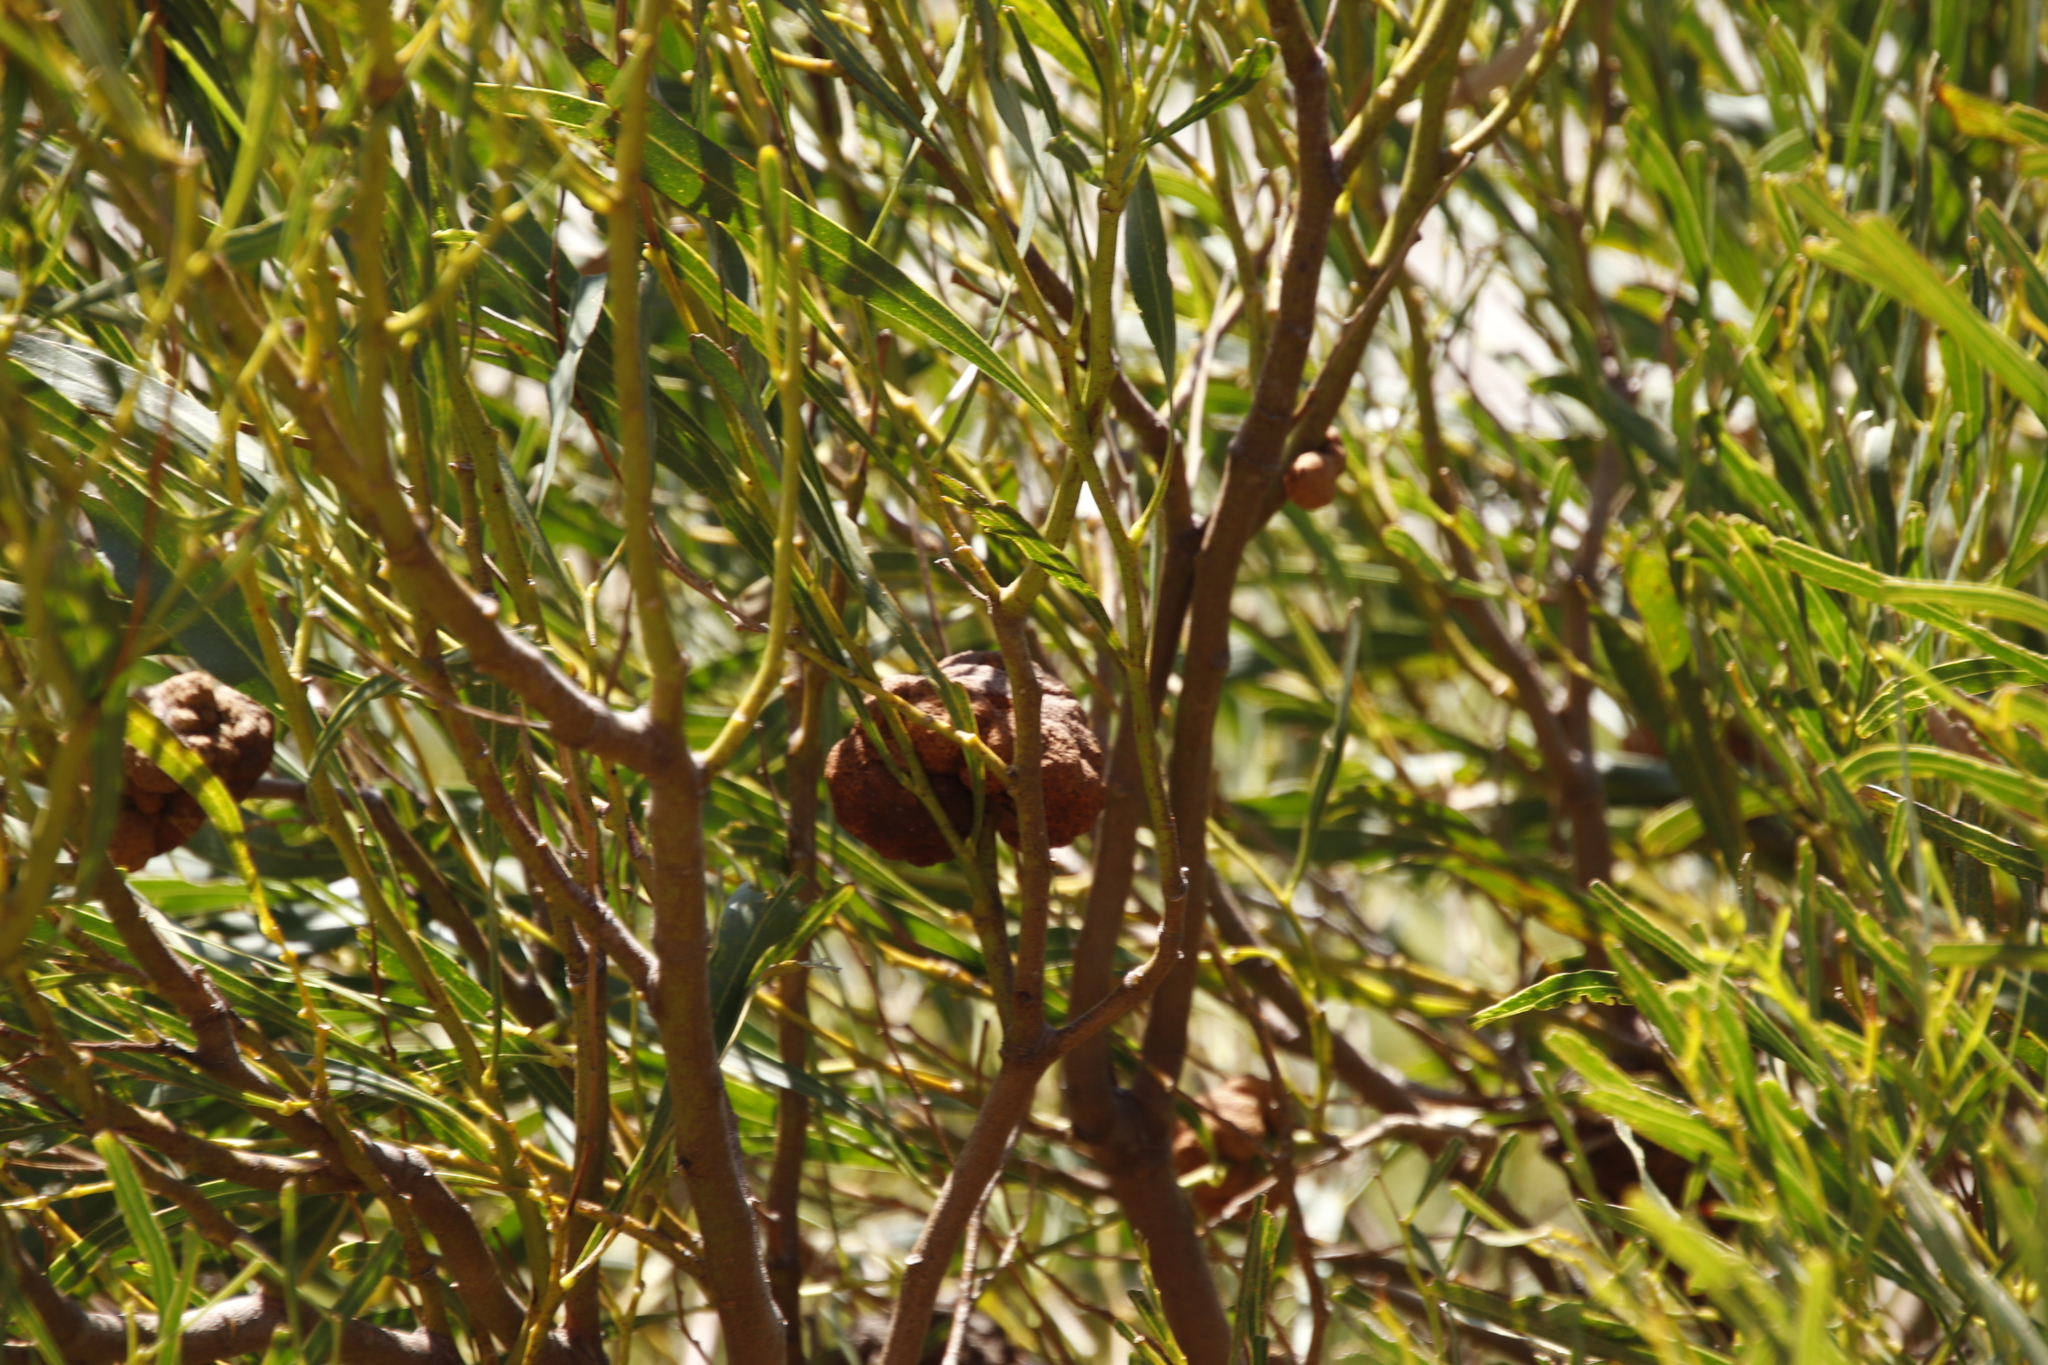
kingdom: Plantae
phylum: Tracheophyta
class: Magnoliopsida
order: Fabales
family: Fabaceae
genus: Acacia
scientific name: Acacia saligna
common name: Orange wattle
